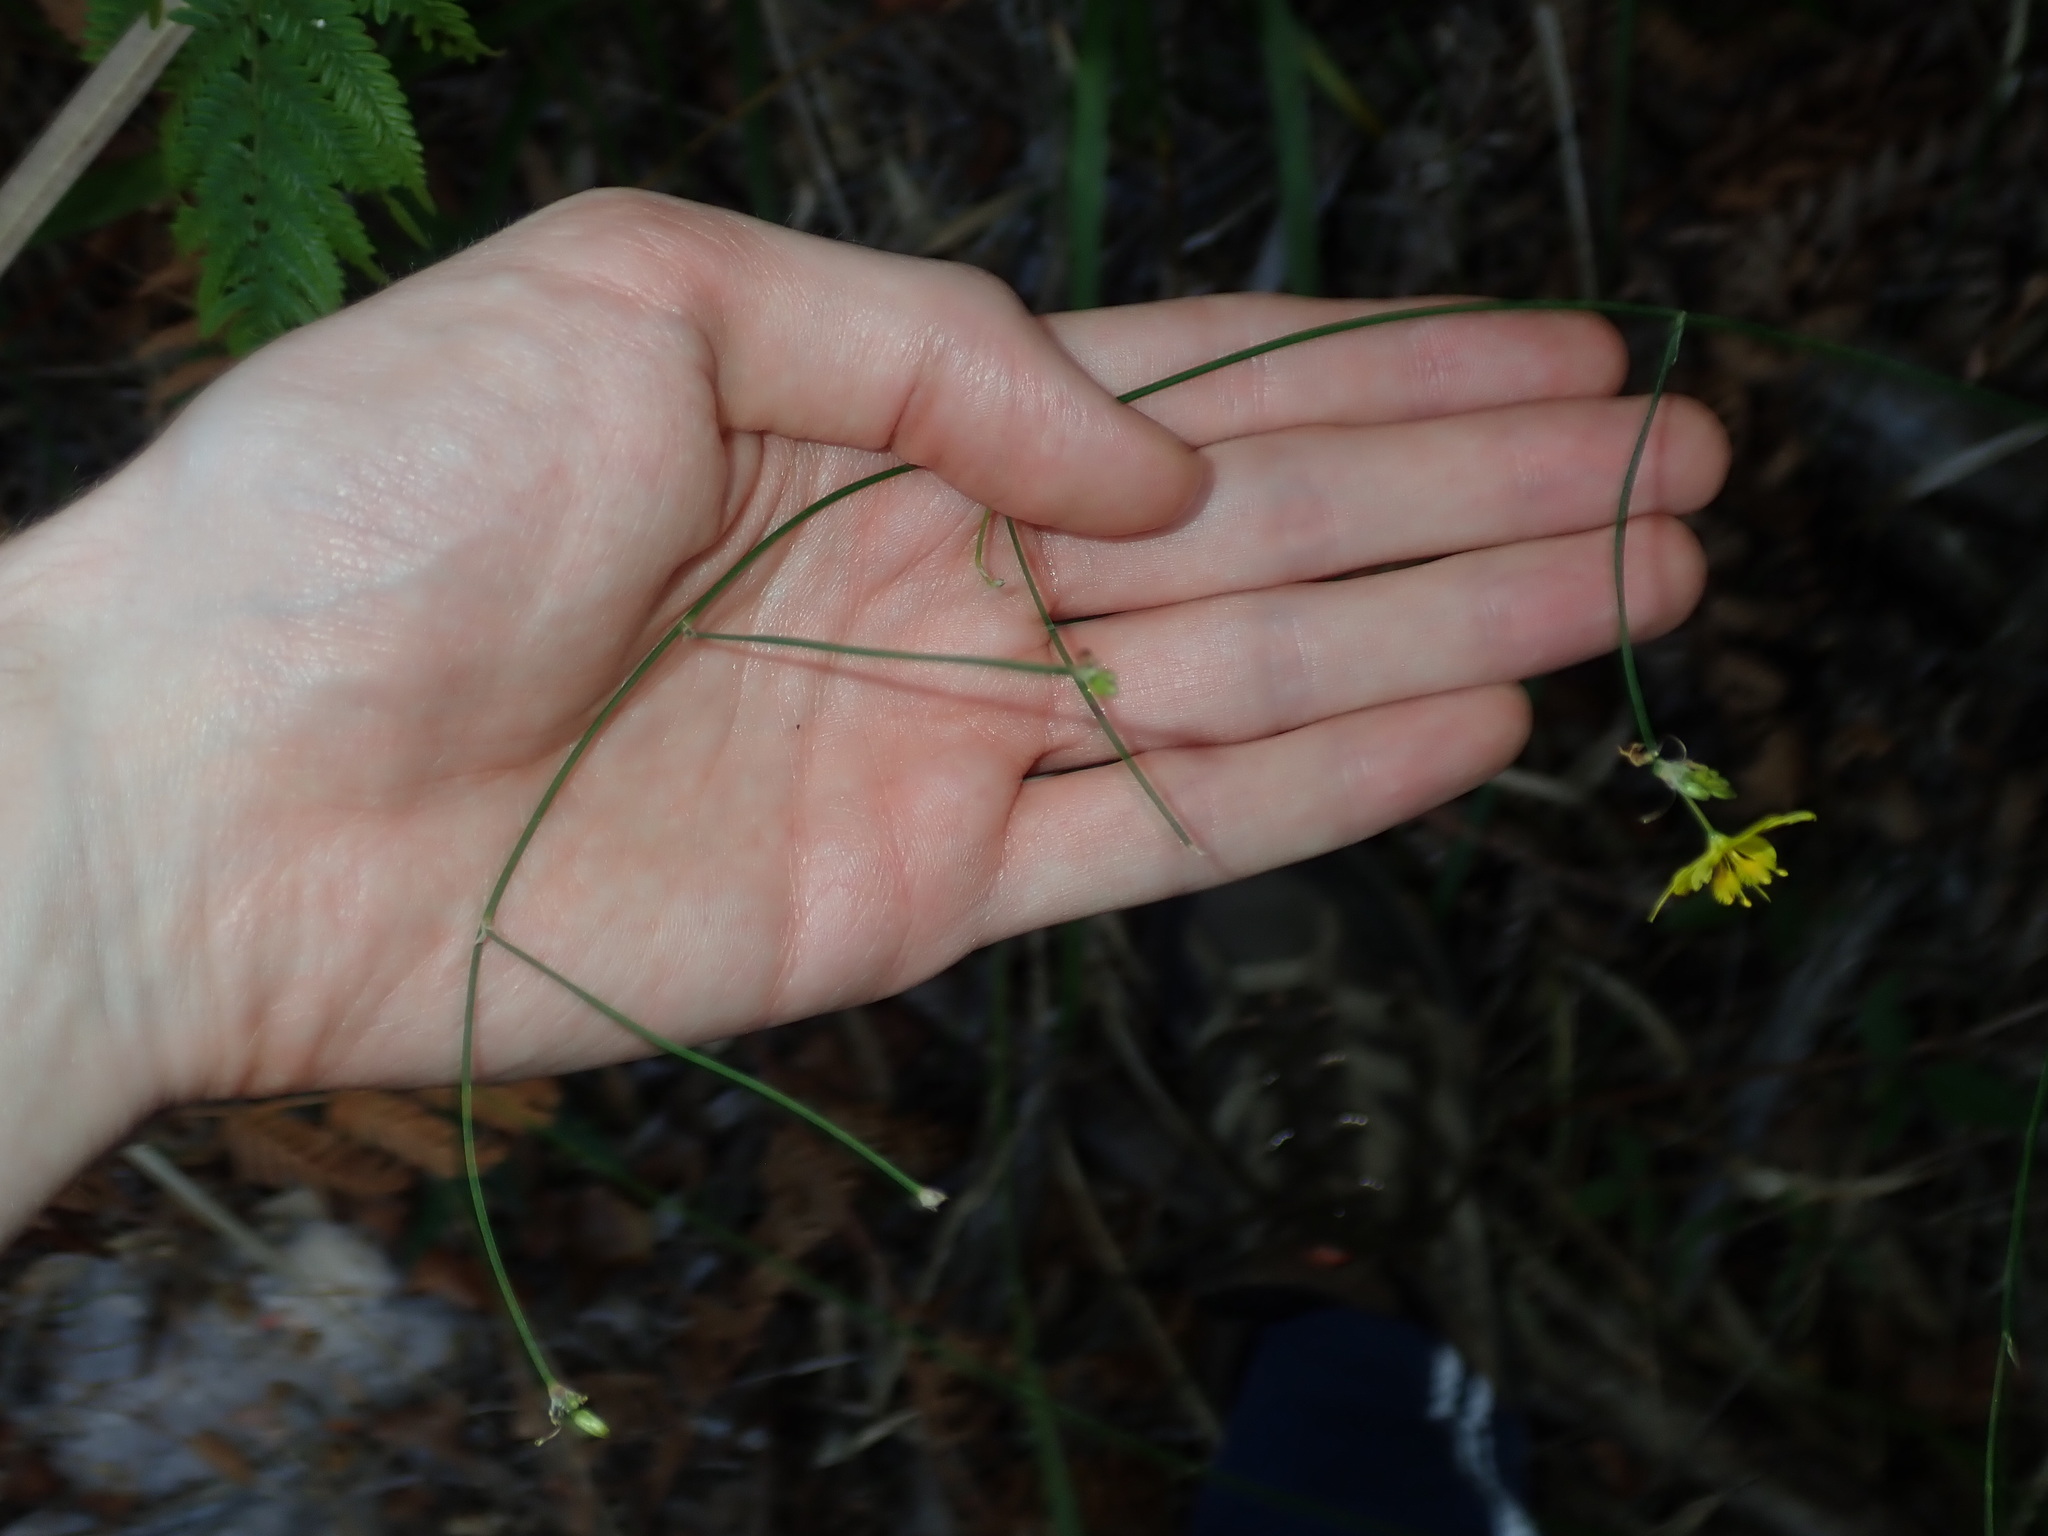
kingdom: Plantae
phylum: Tracheophyta
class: Liliopsida
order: Asparagales
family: Asphodelaceae
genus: Tricoryne
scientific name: Tricoryne elatior
